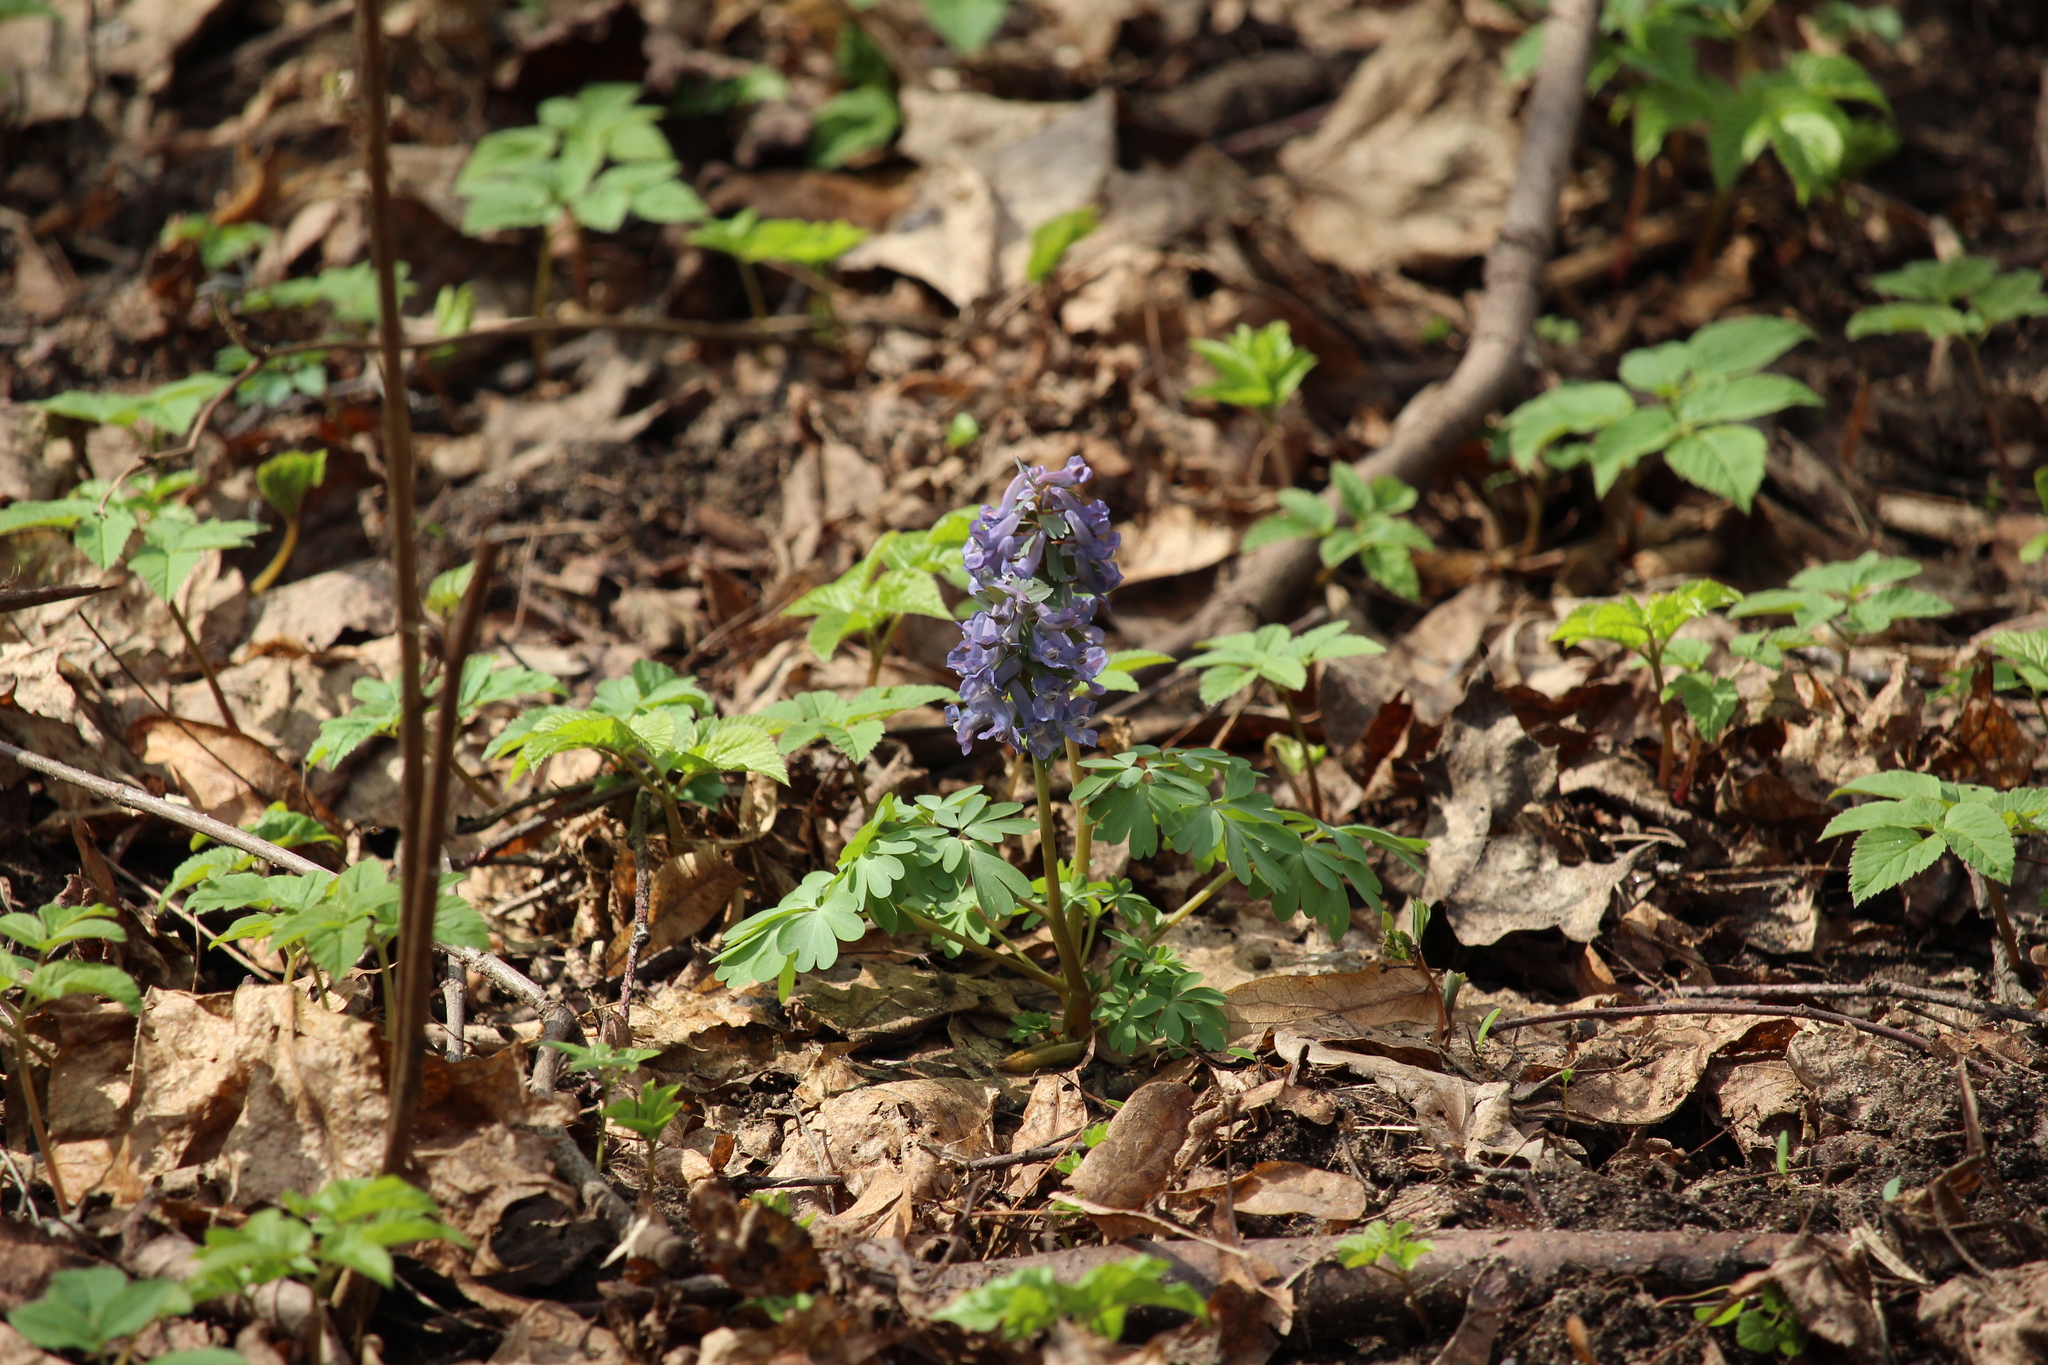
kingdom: Plantae
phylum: Tracheophyta
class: Magnoliopsida
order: Ranunculales
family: Papaveraceae
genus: Corydalis
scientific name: Corydalis solida
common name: Bird-in-a-bush
